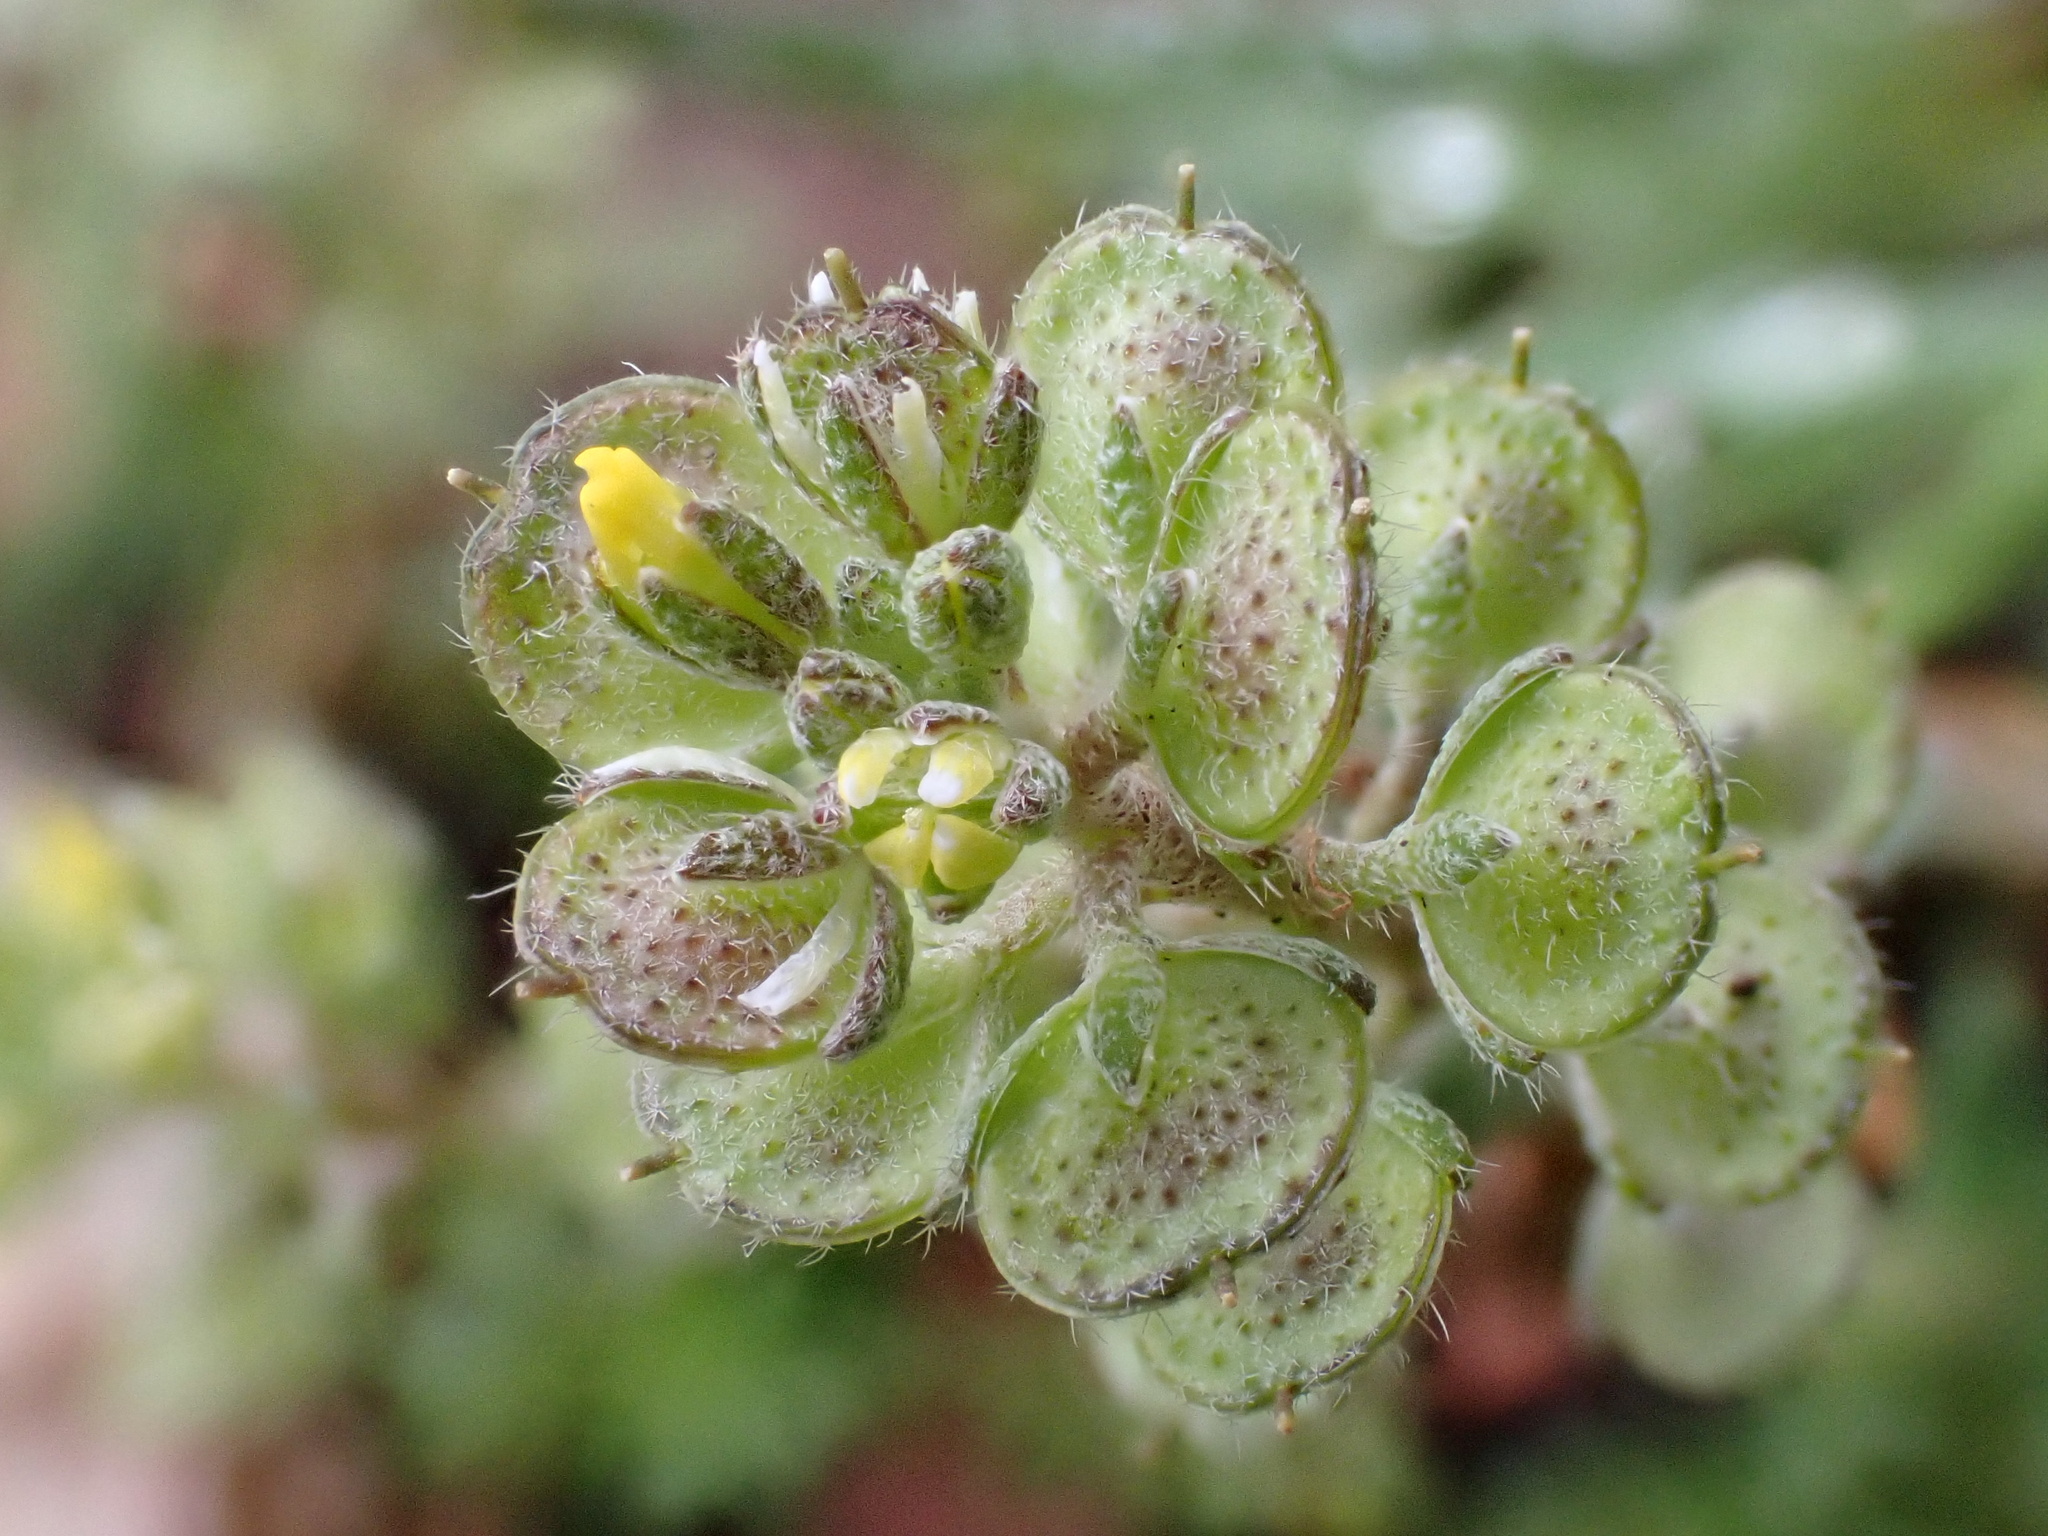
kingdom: Plantae
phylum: Tracheophyta
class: Magnoliopsida
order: Brassicales
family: Brassicaceae
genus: Alyssum
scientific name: Alyssum granatense
